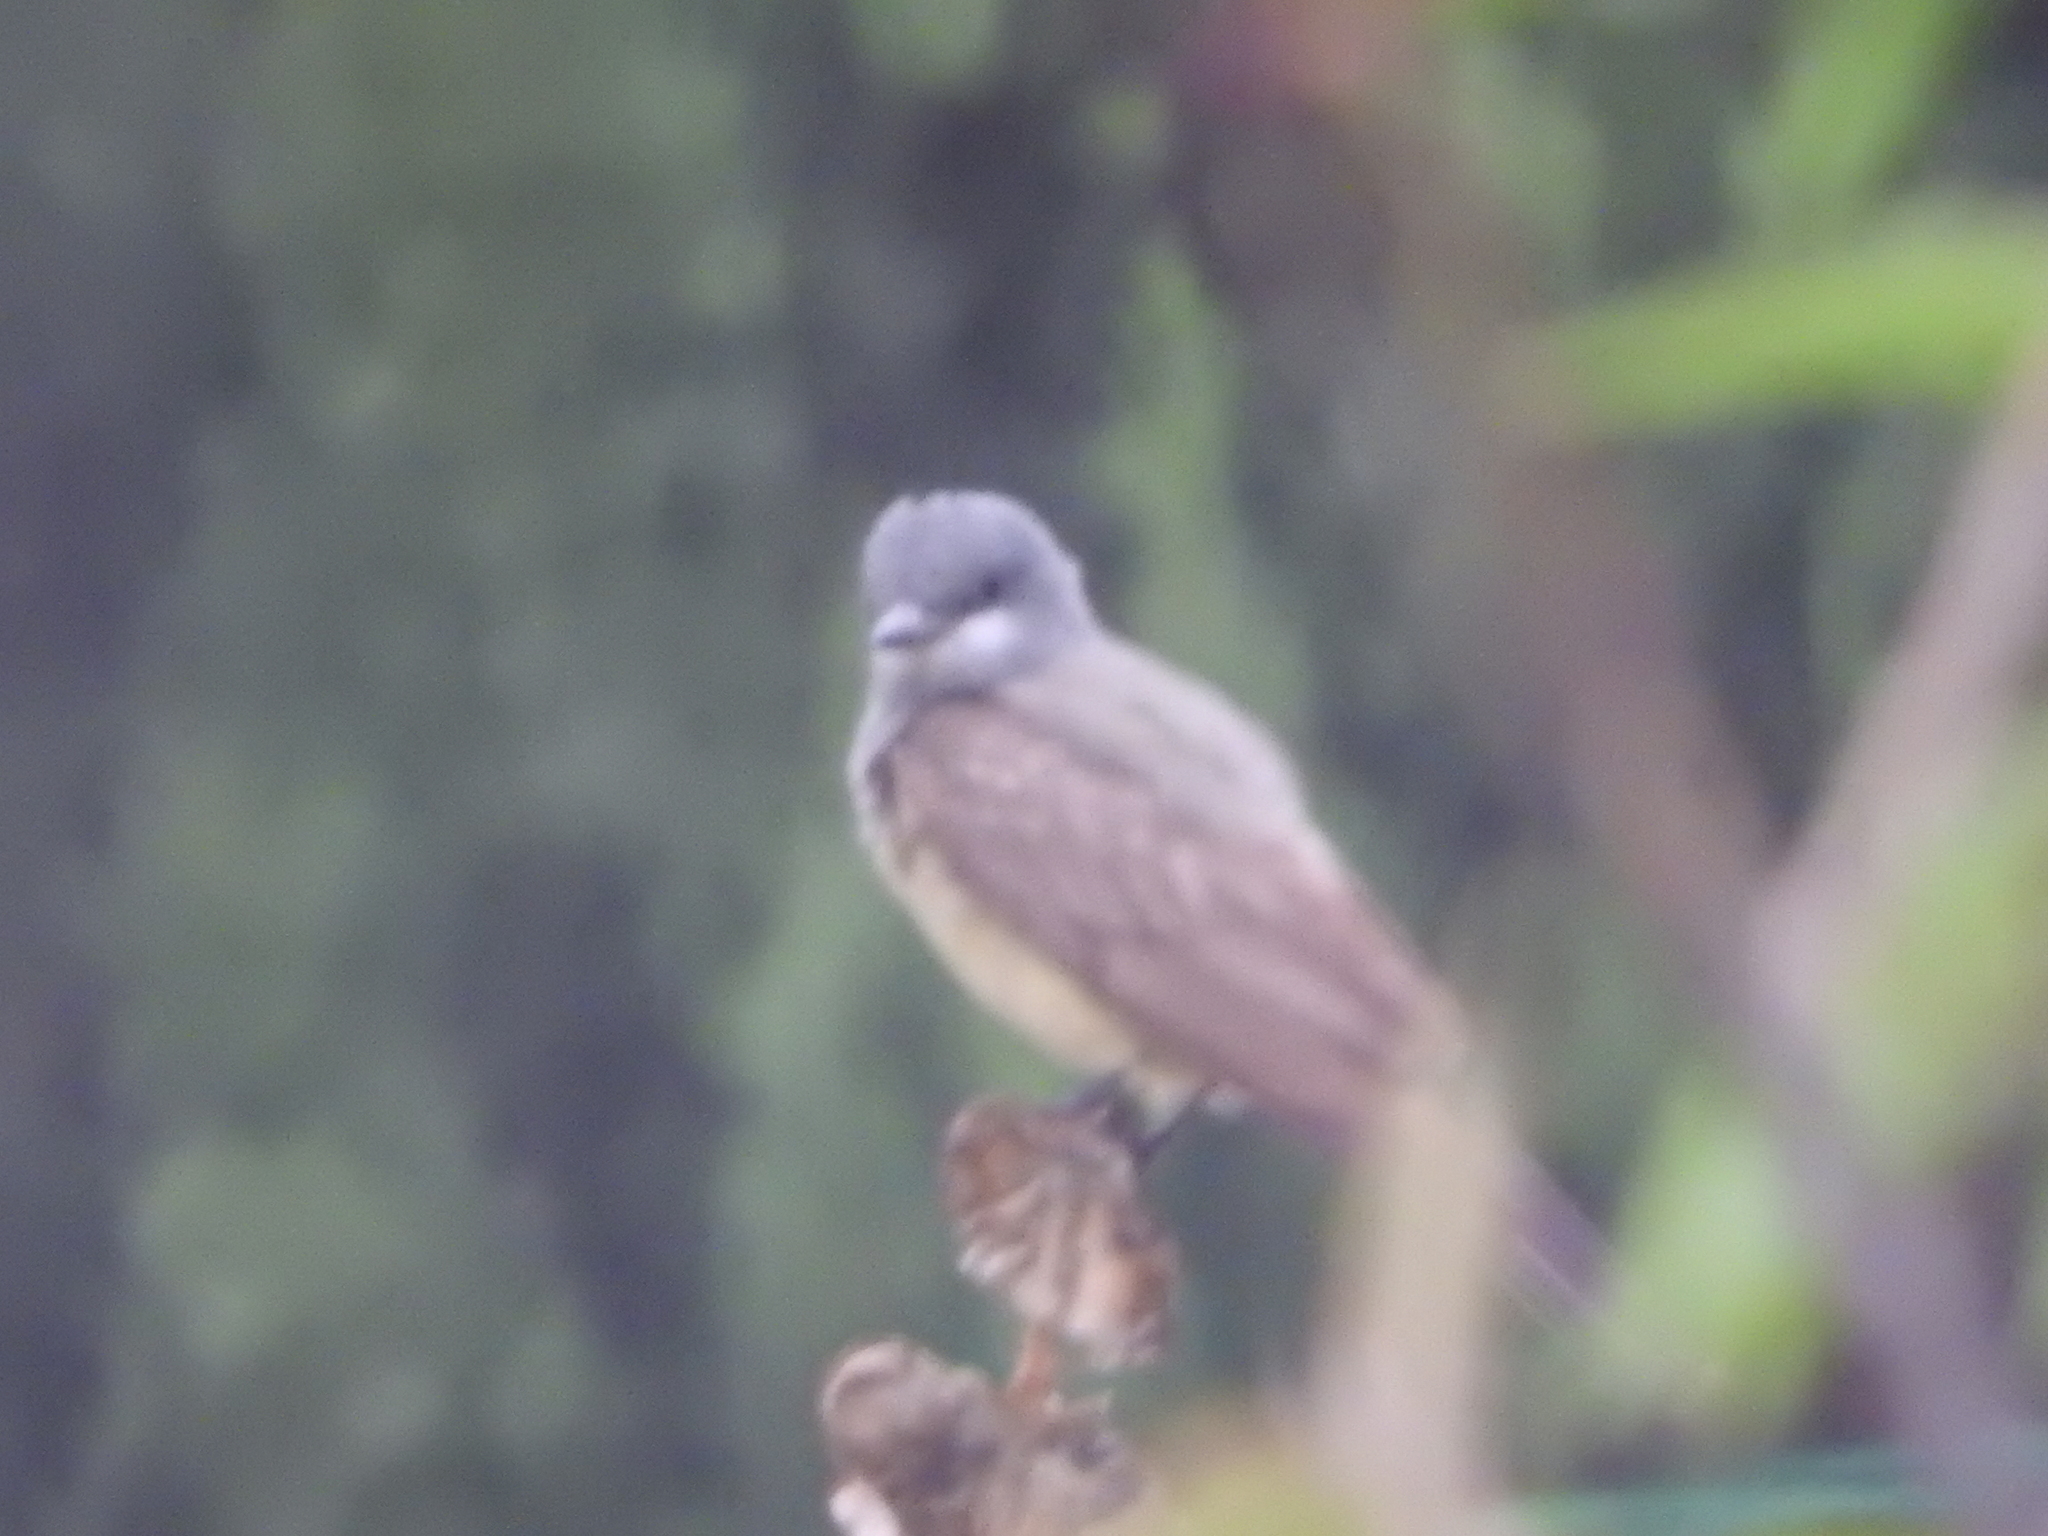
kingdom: Animalia
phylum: Chordata
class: Aves
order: Passeriformes
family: Tyrannidae
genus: Tyrannus
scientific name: Tyrannus vociferans
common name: Cassin's kingbird
